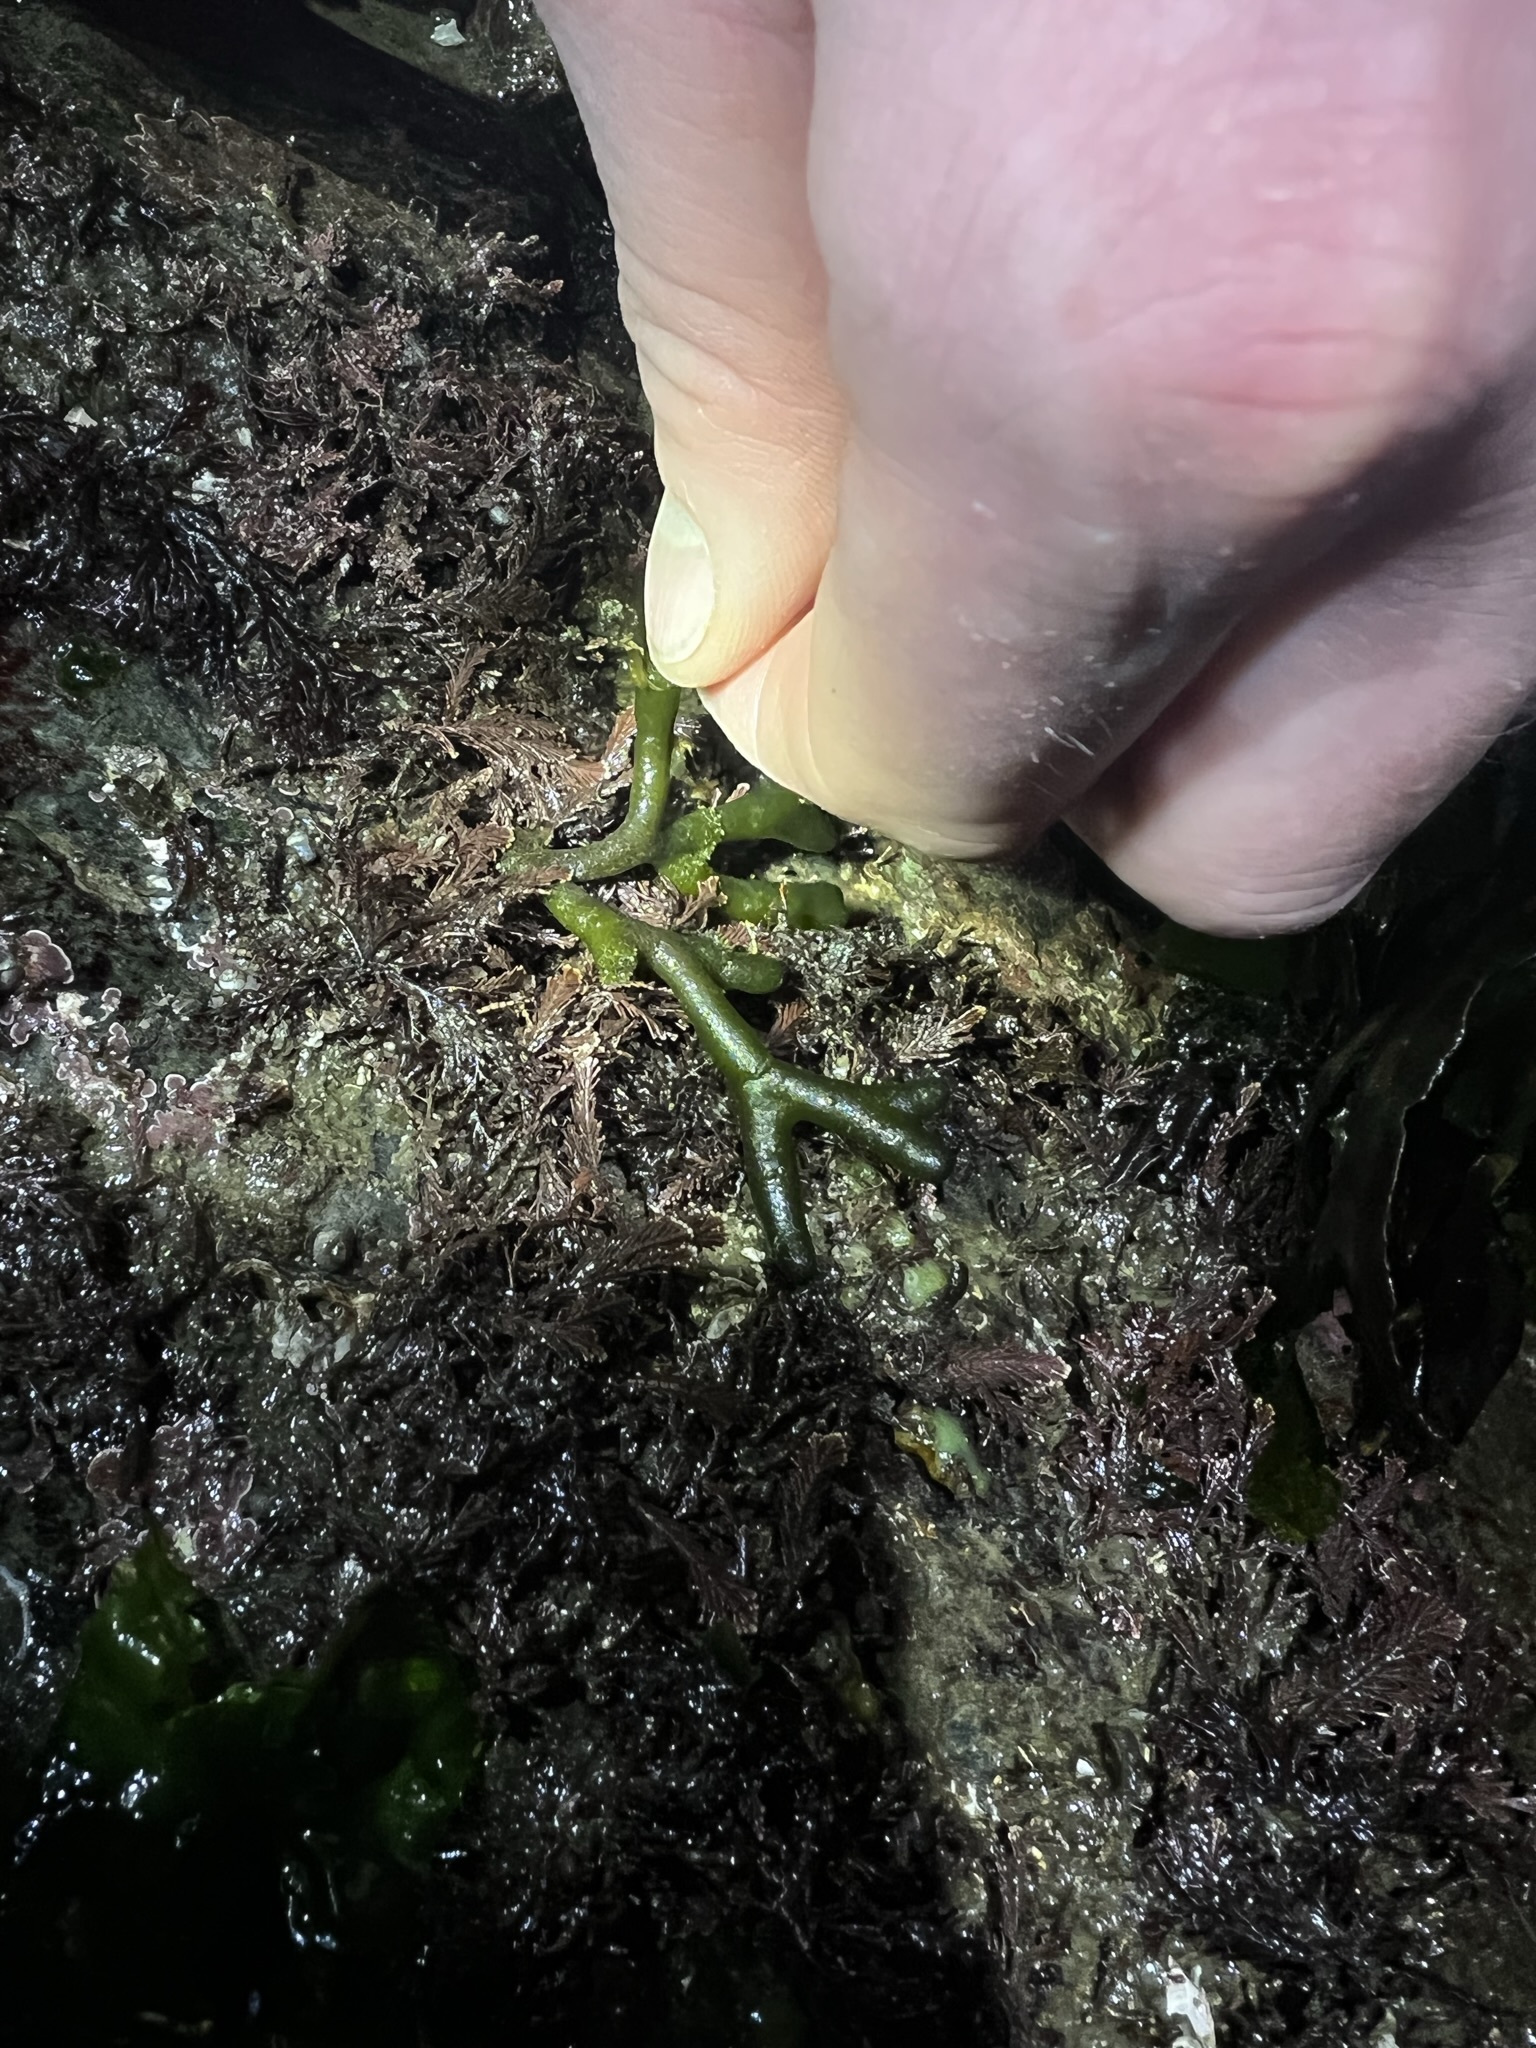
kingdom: Plantae
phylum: Chlorophyta
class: Ulvophyceae
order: Bryopsidales
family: Codiaceae
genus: Codium
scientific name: Codium fragile
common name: Dead man's fingers
